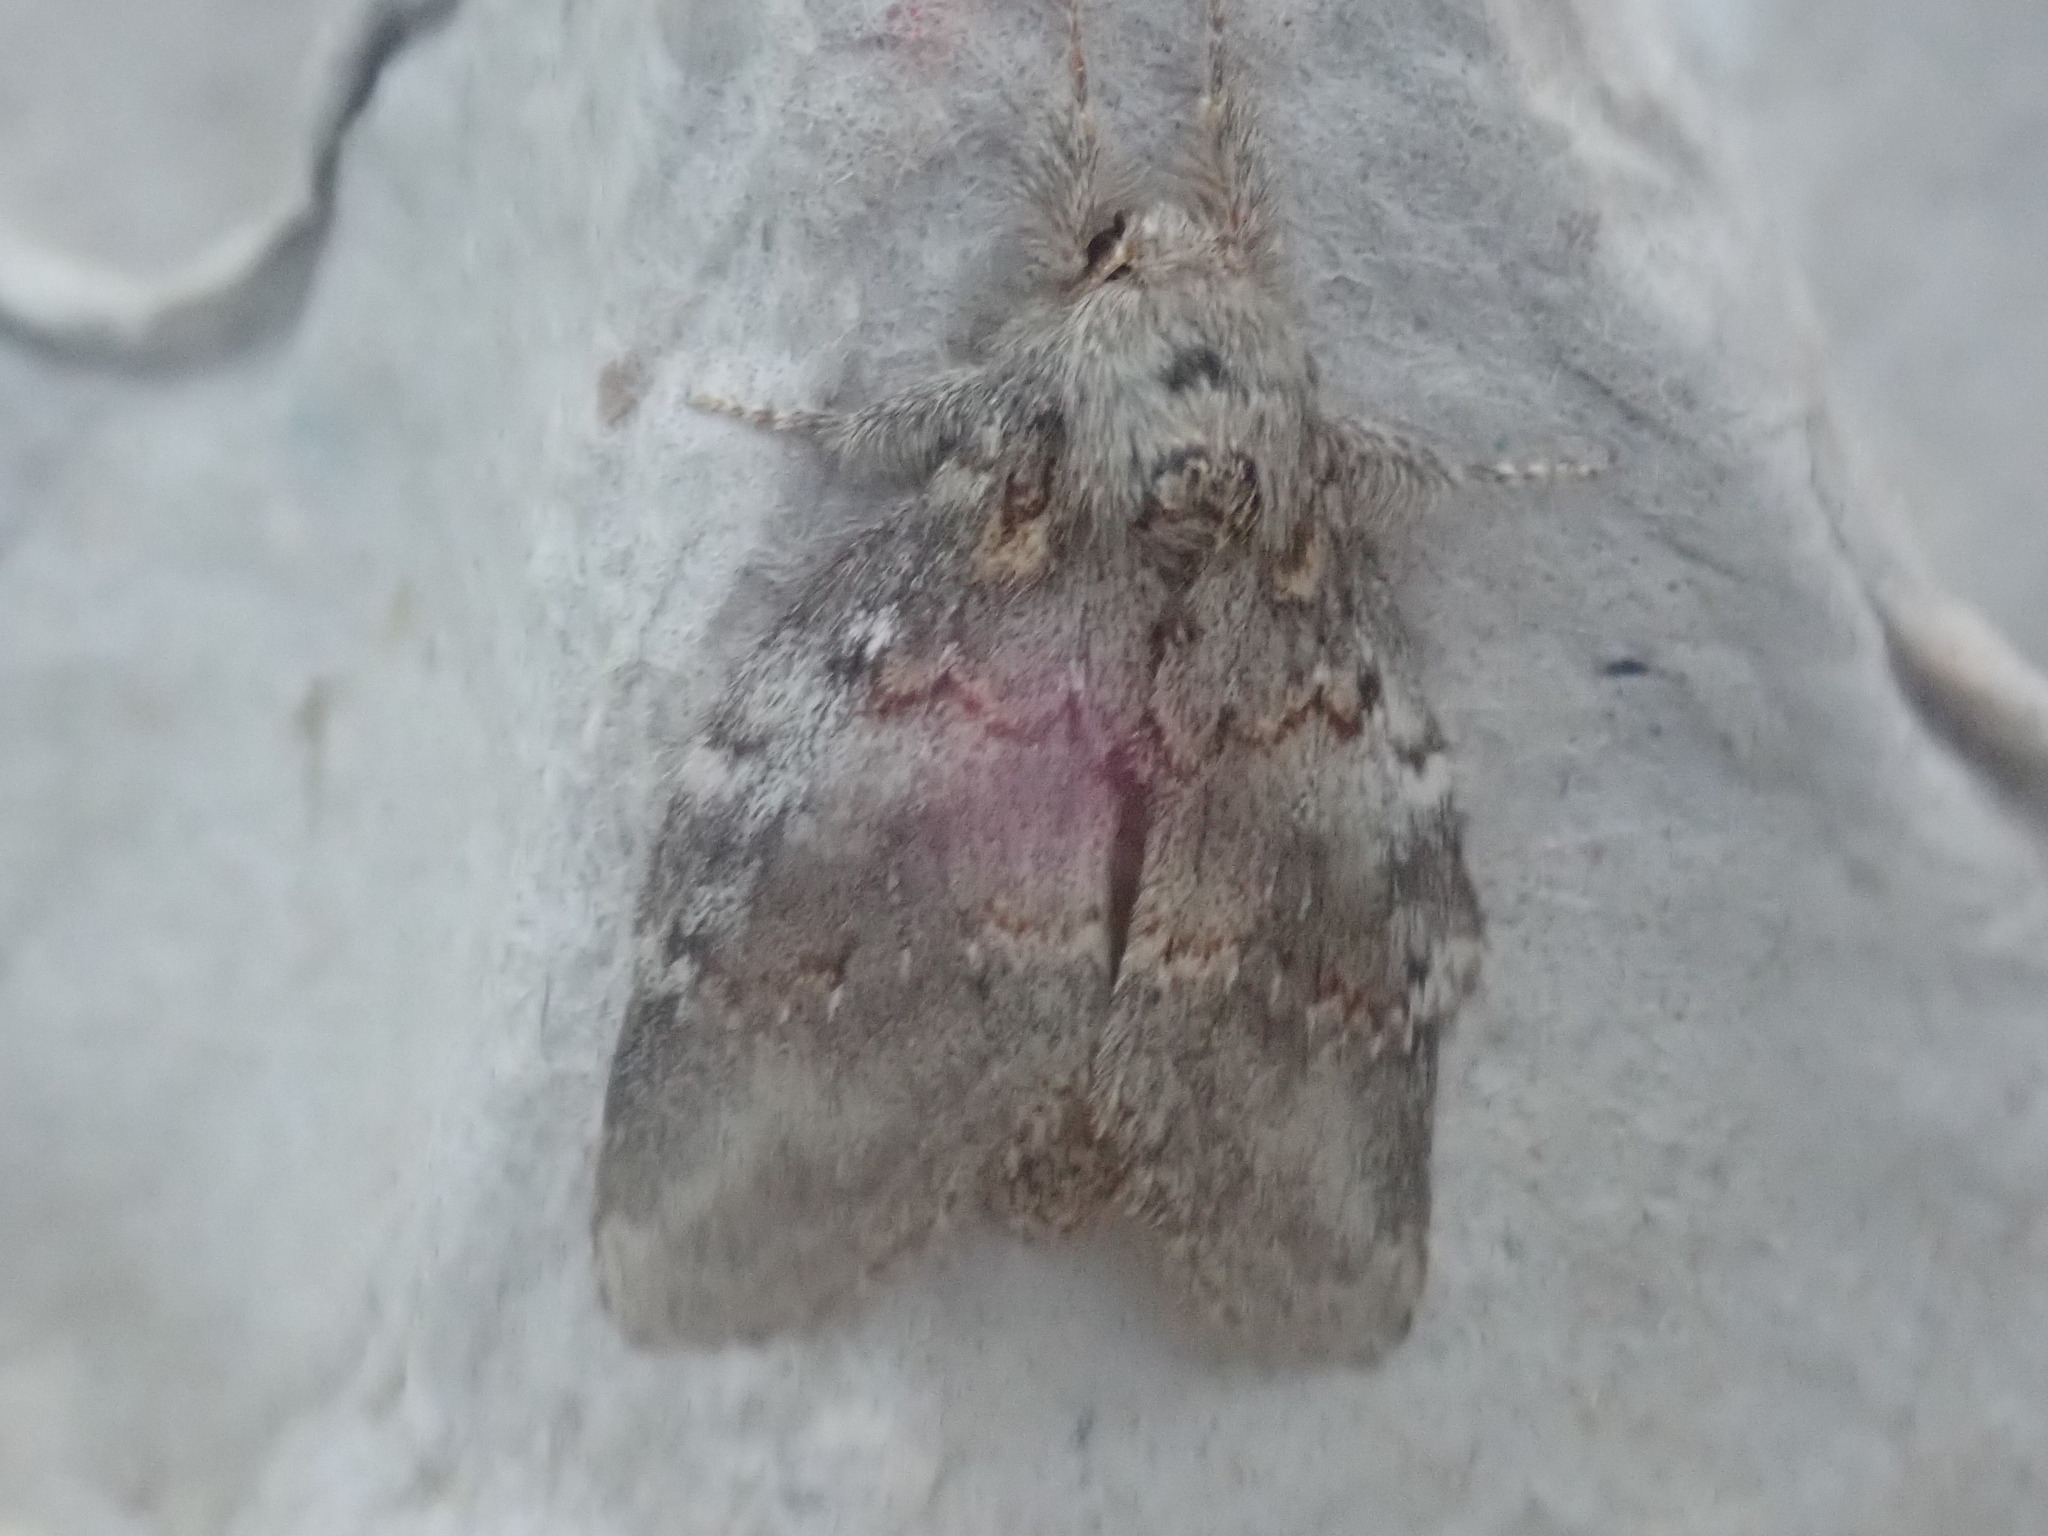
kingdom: Animalia
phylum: Arthropoda
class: Insecta
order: Lepidoptera
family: Notodontidae
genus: Peridea
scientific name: Peridea angulosa
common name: Angulose prominent
